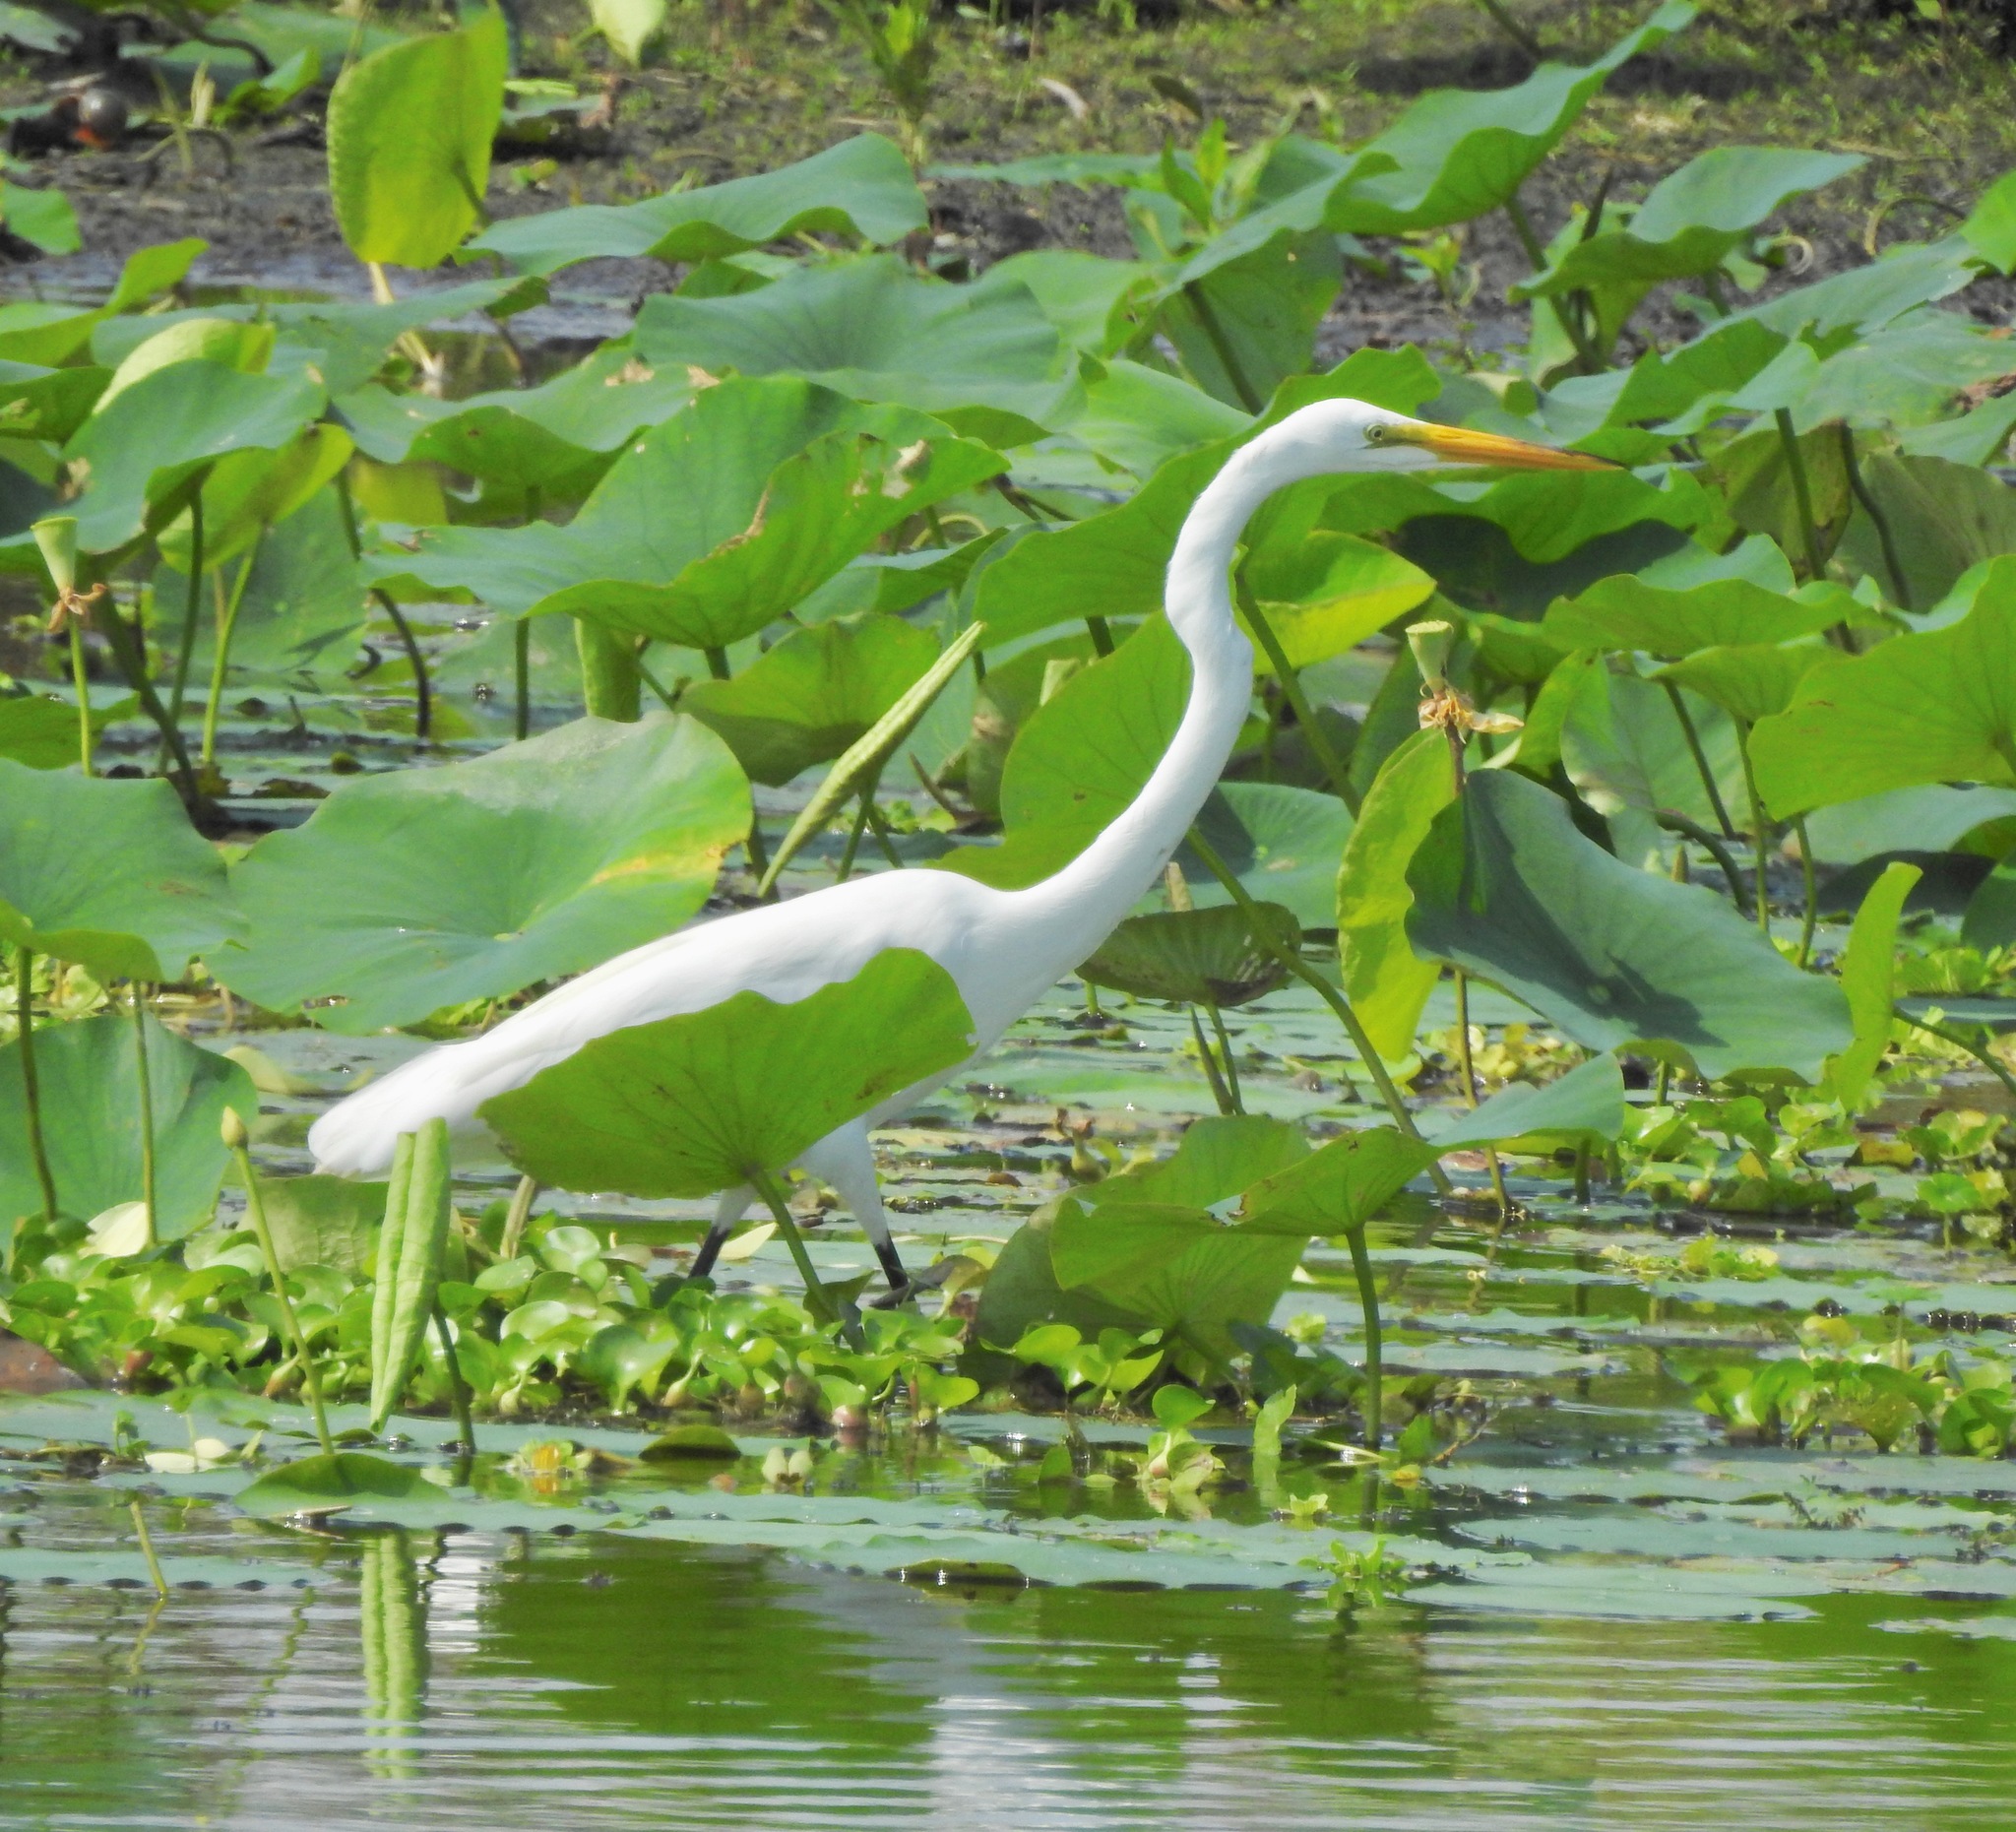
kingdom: Animalia
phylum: Chordata
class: Aves
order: Pelecaniformes
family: Ardeidae
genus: Ardea
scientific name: Ardea alba
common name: Great egret
